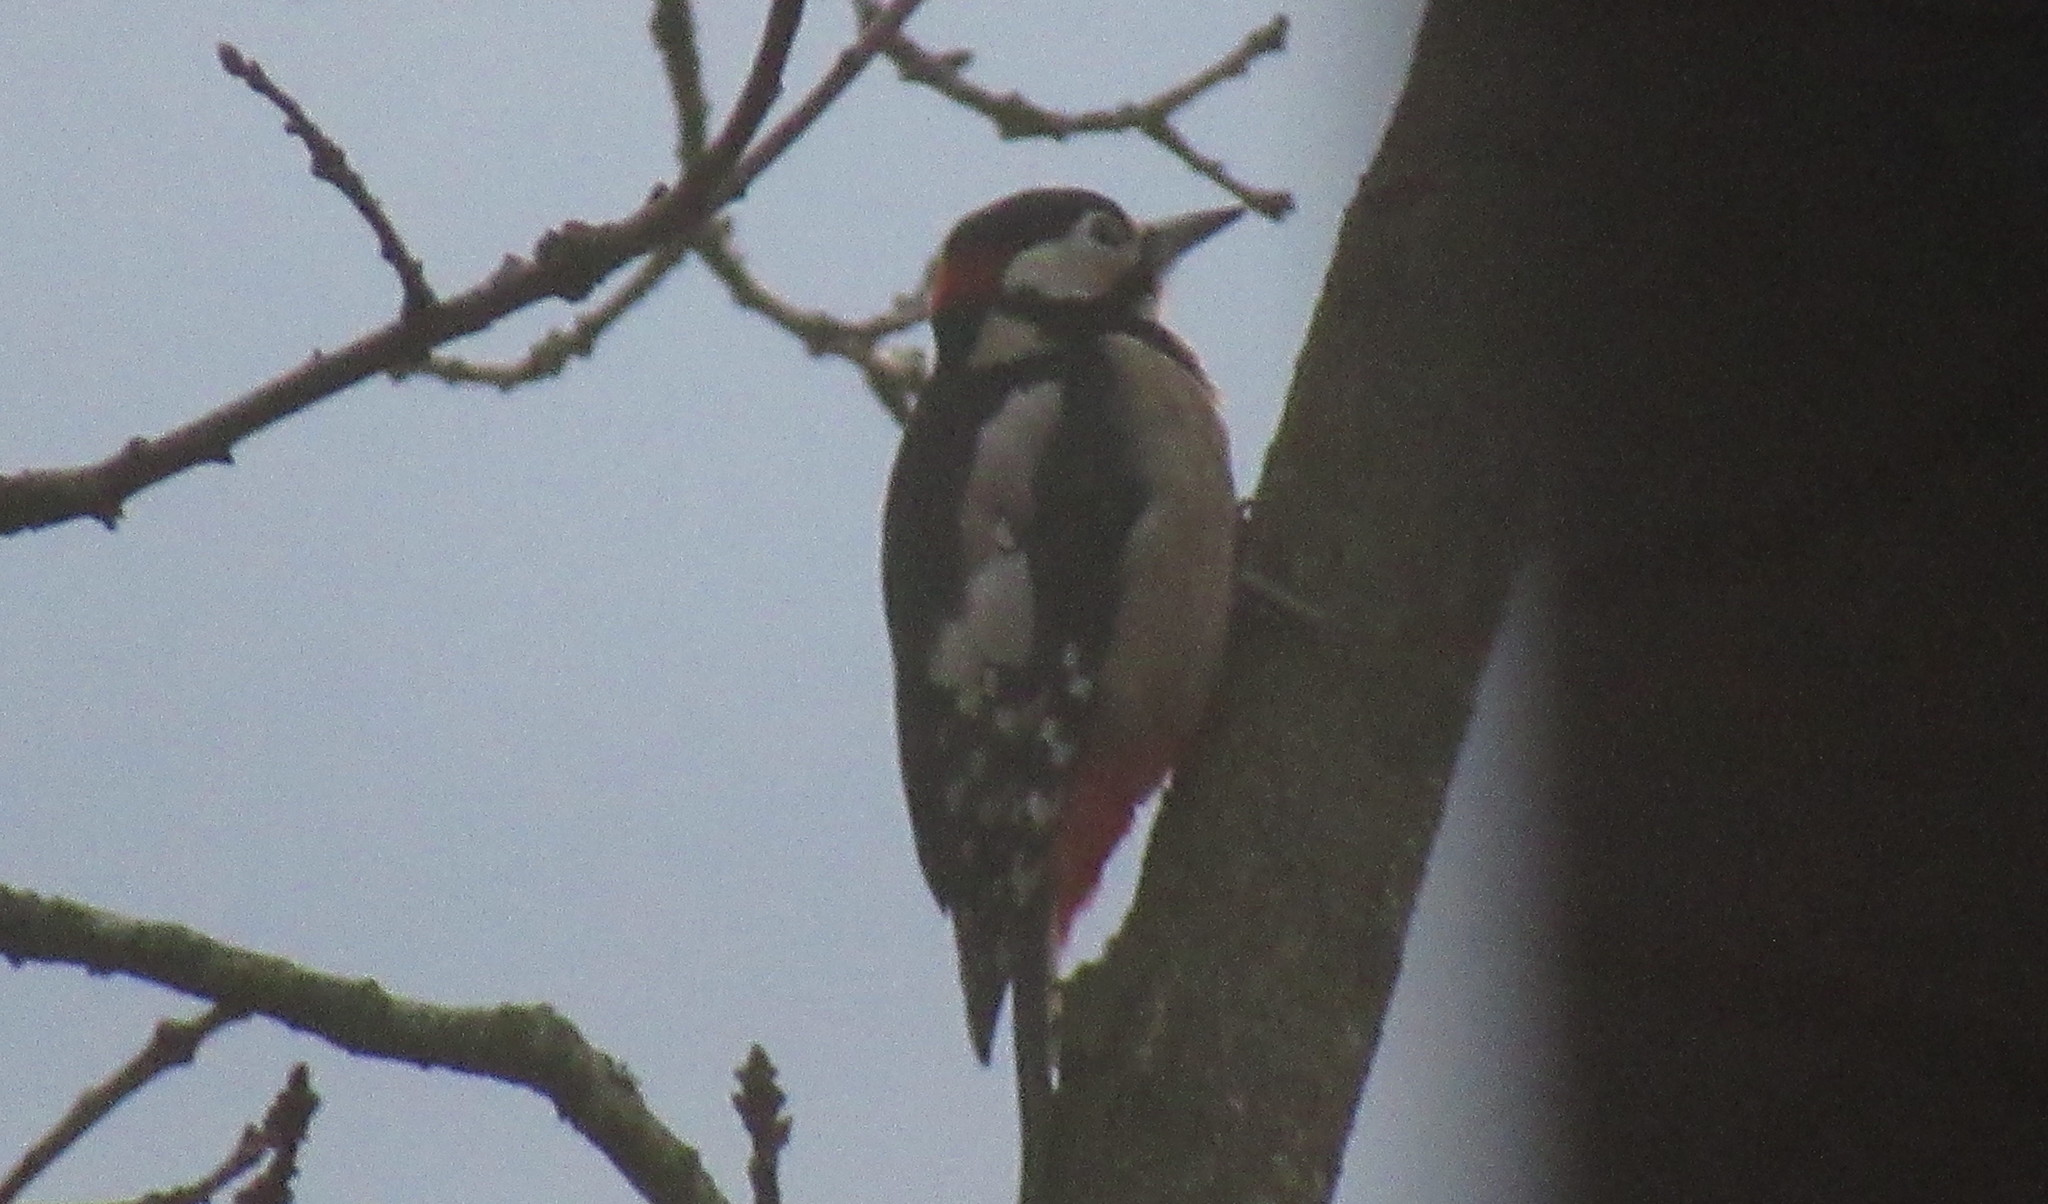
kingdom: Animalia
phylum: Chordata
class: Aves
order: Piciformes
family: Picidae
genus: Dendrocopos
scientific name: Dendrocopos major
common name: Great spotted woodpecker
